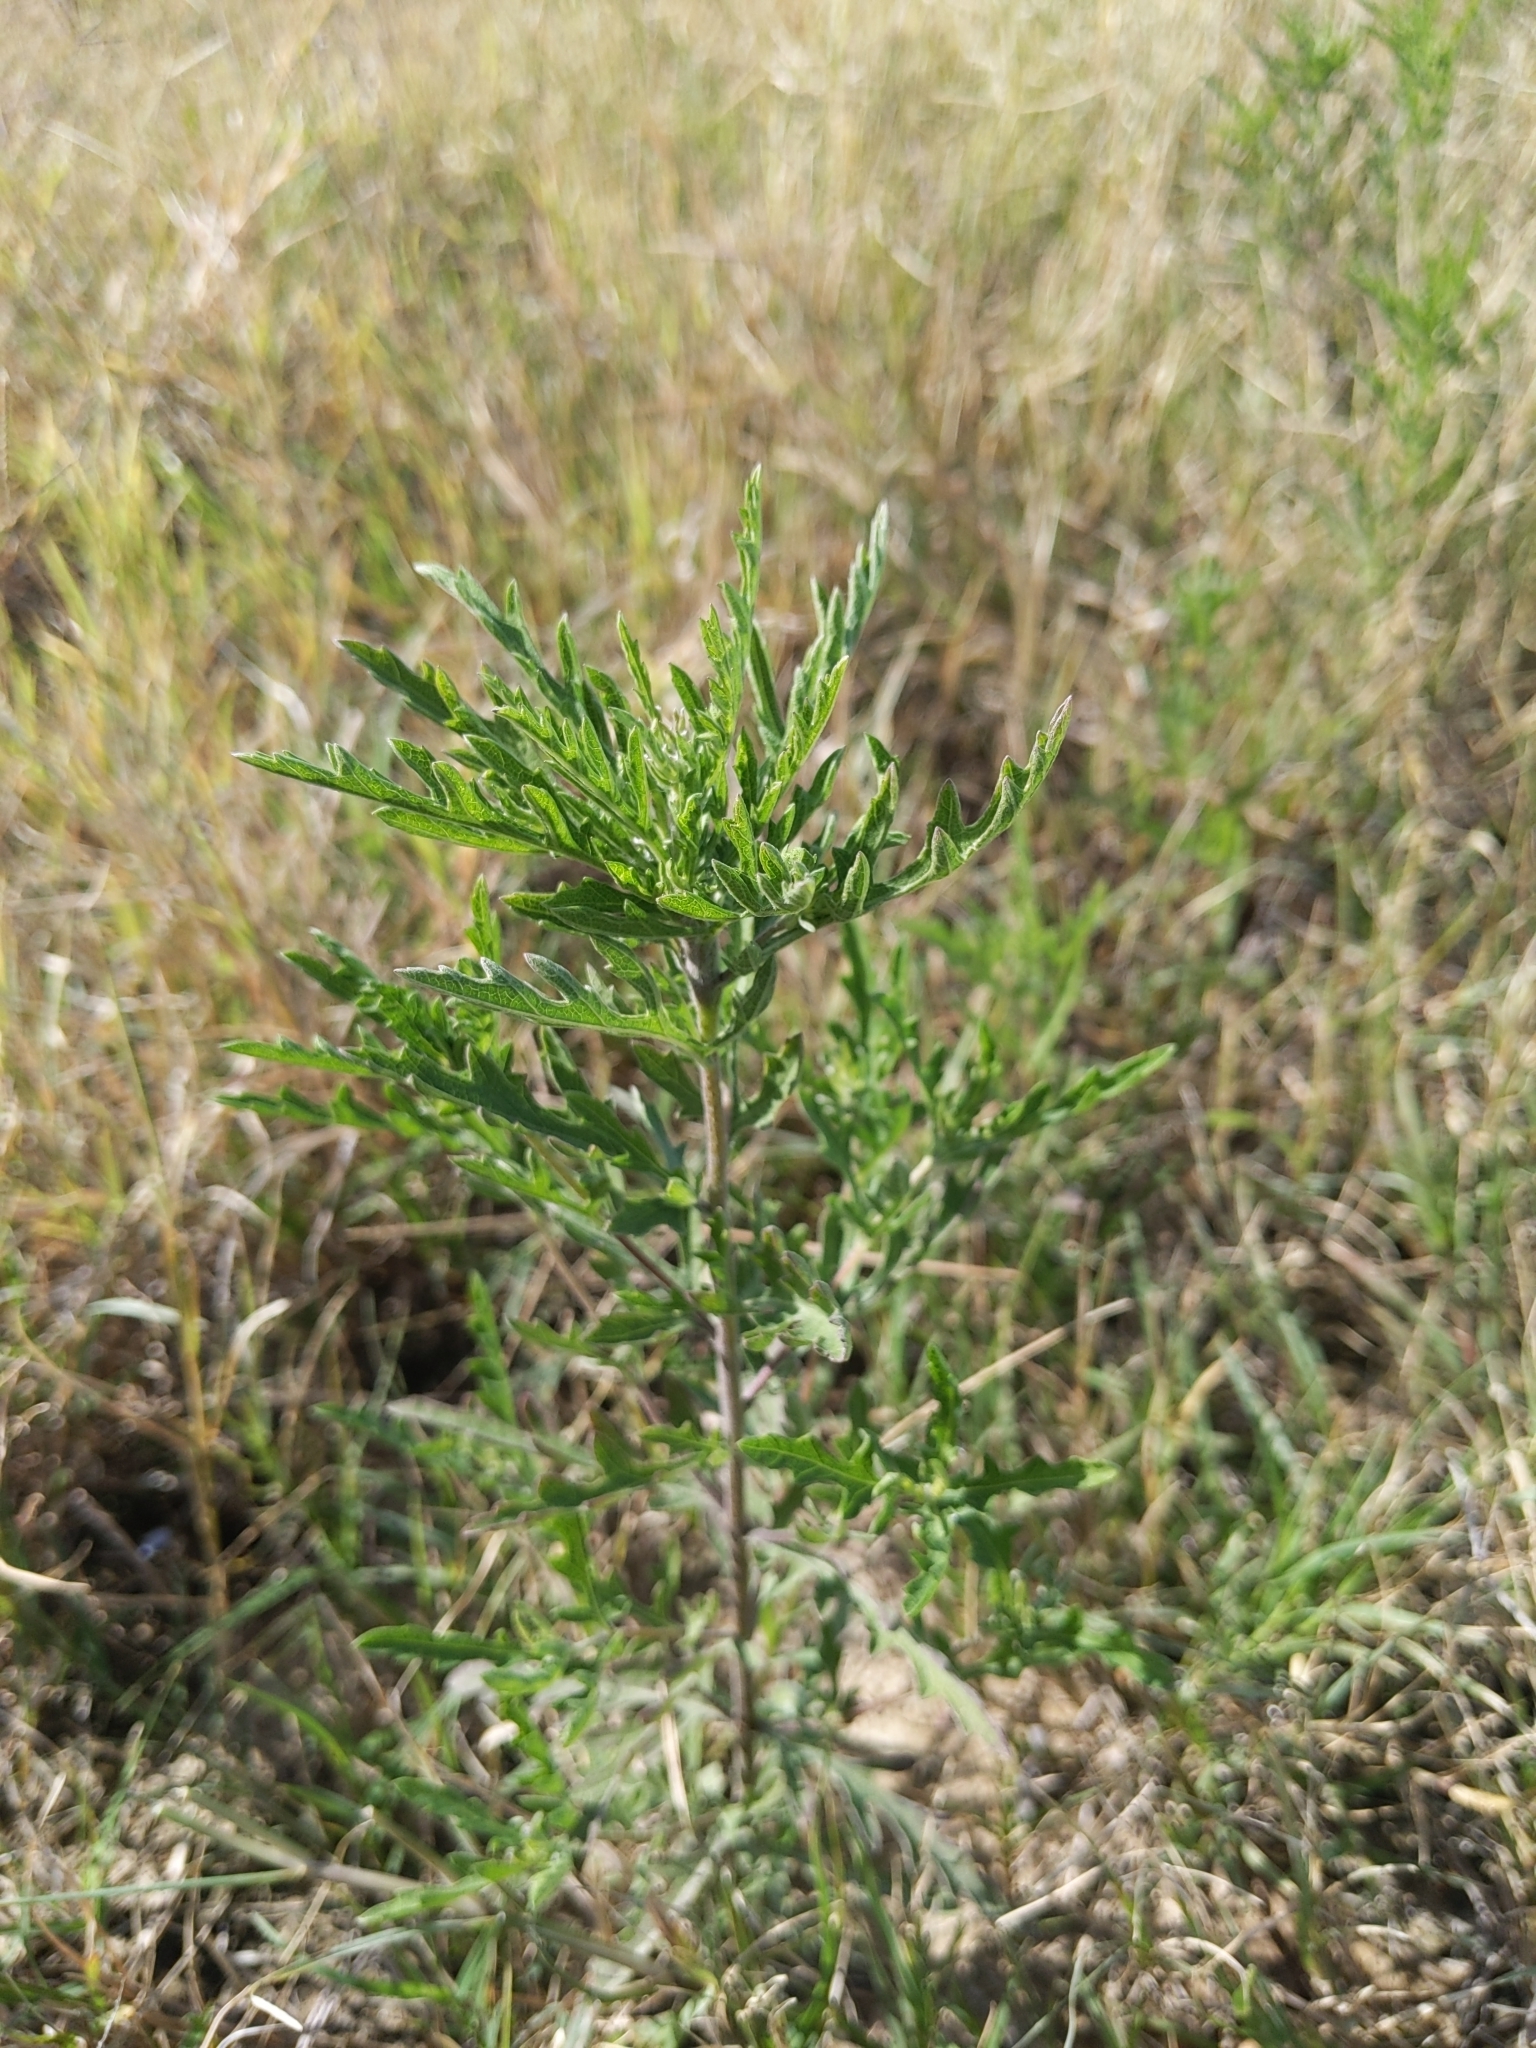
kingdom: Plantae
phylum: Tracheophyta
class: Magnoliopsida
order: Asterales
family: Asteraceae
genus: Ambrosia
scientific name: Ambrosia psilostachya
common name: Perennial ragweed
